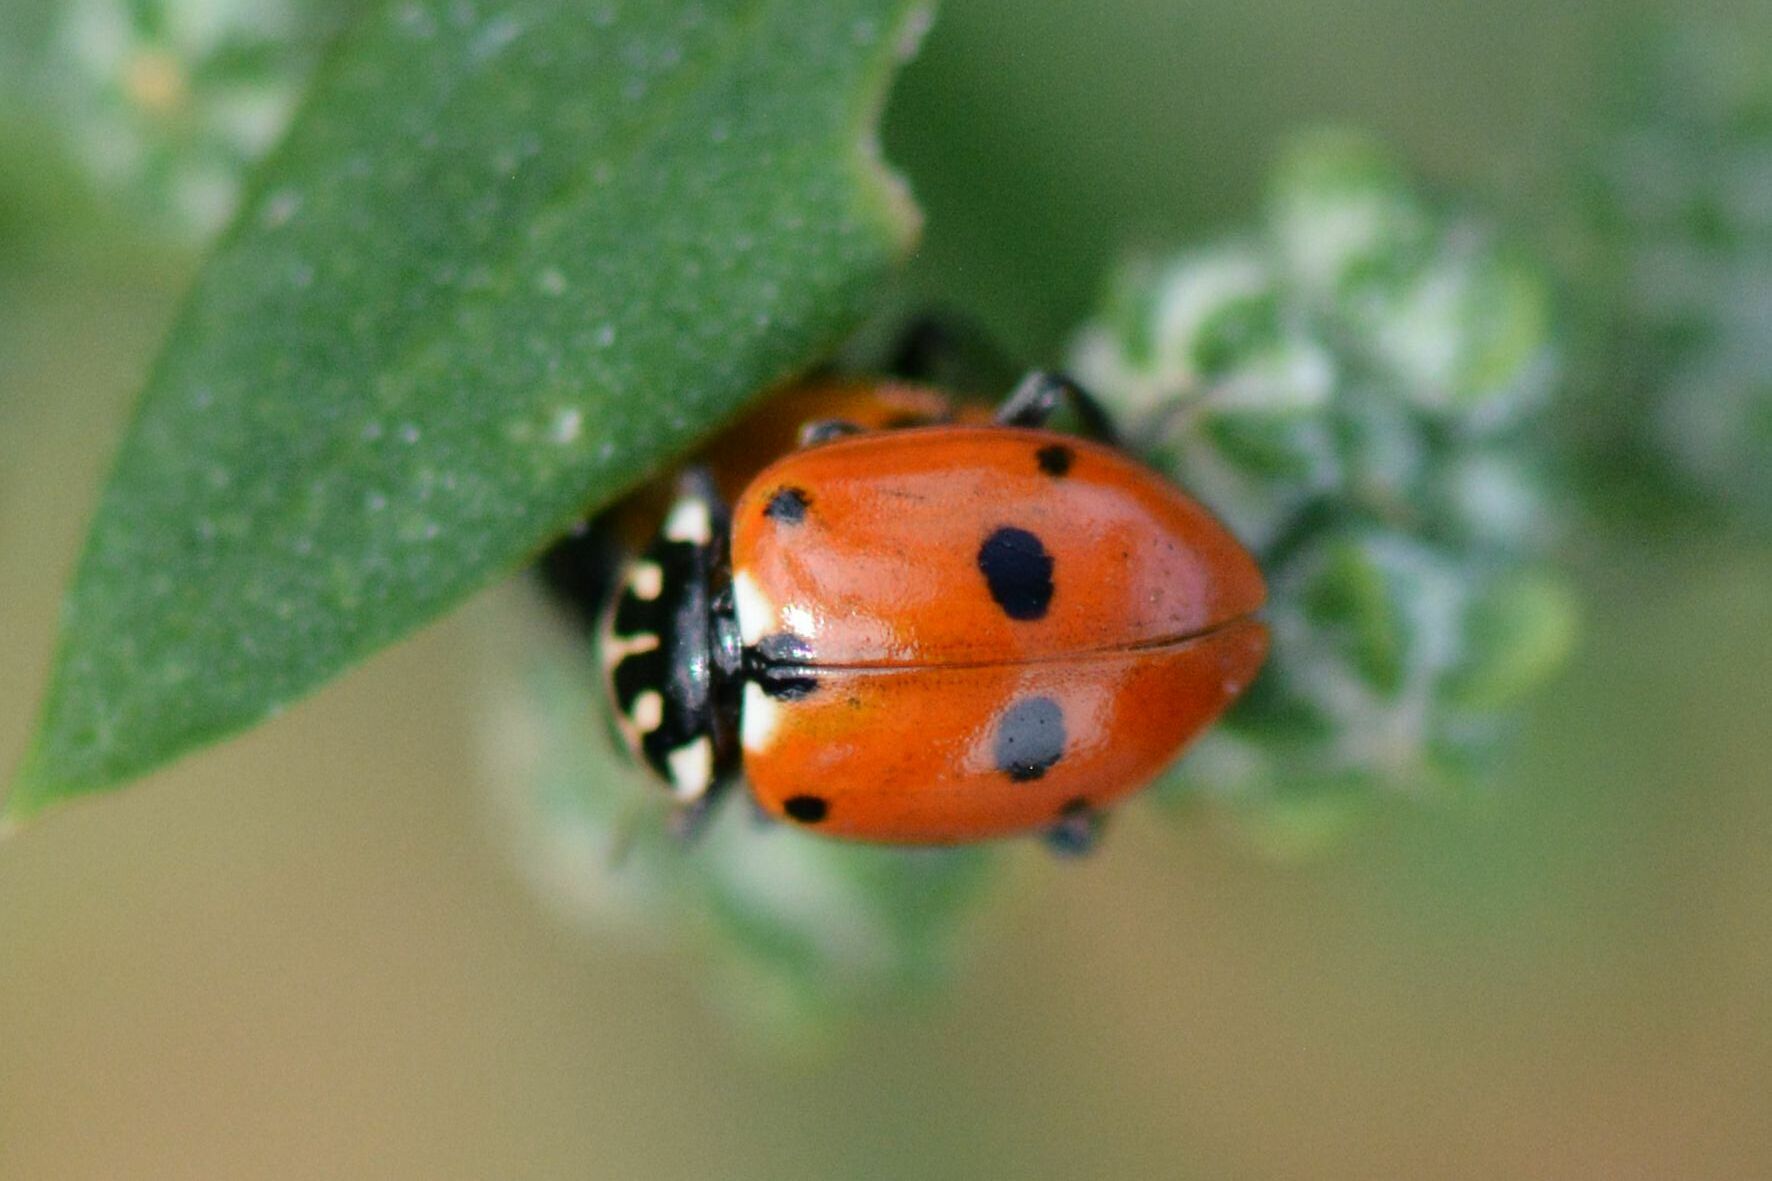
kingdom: Animalia
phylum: Arthropoda
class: Insecta
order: Coleoptera
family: Coccinellidae
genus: Hippodamia
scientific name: Hippodamia variegata
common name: Ladybird beetle
